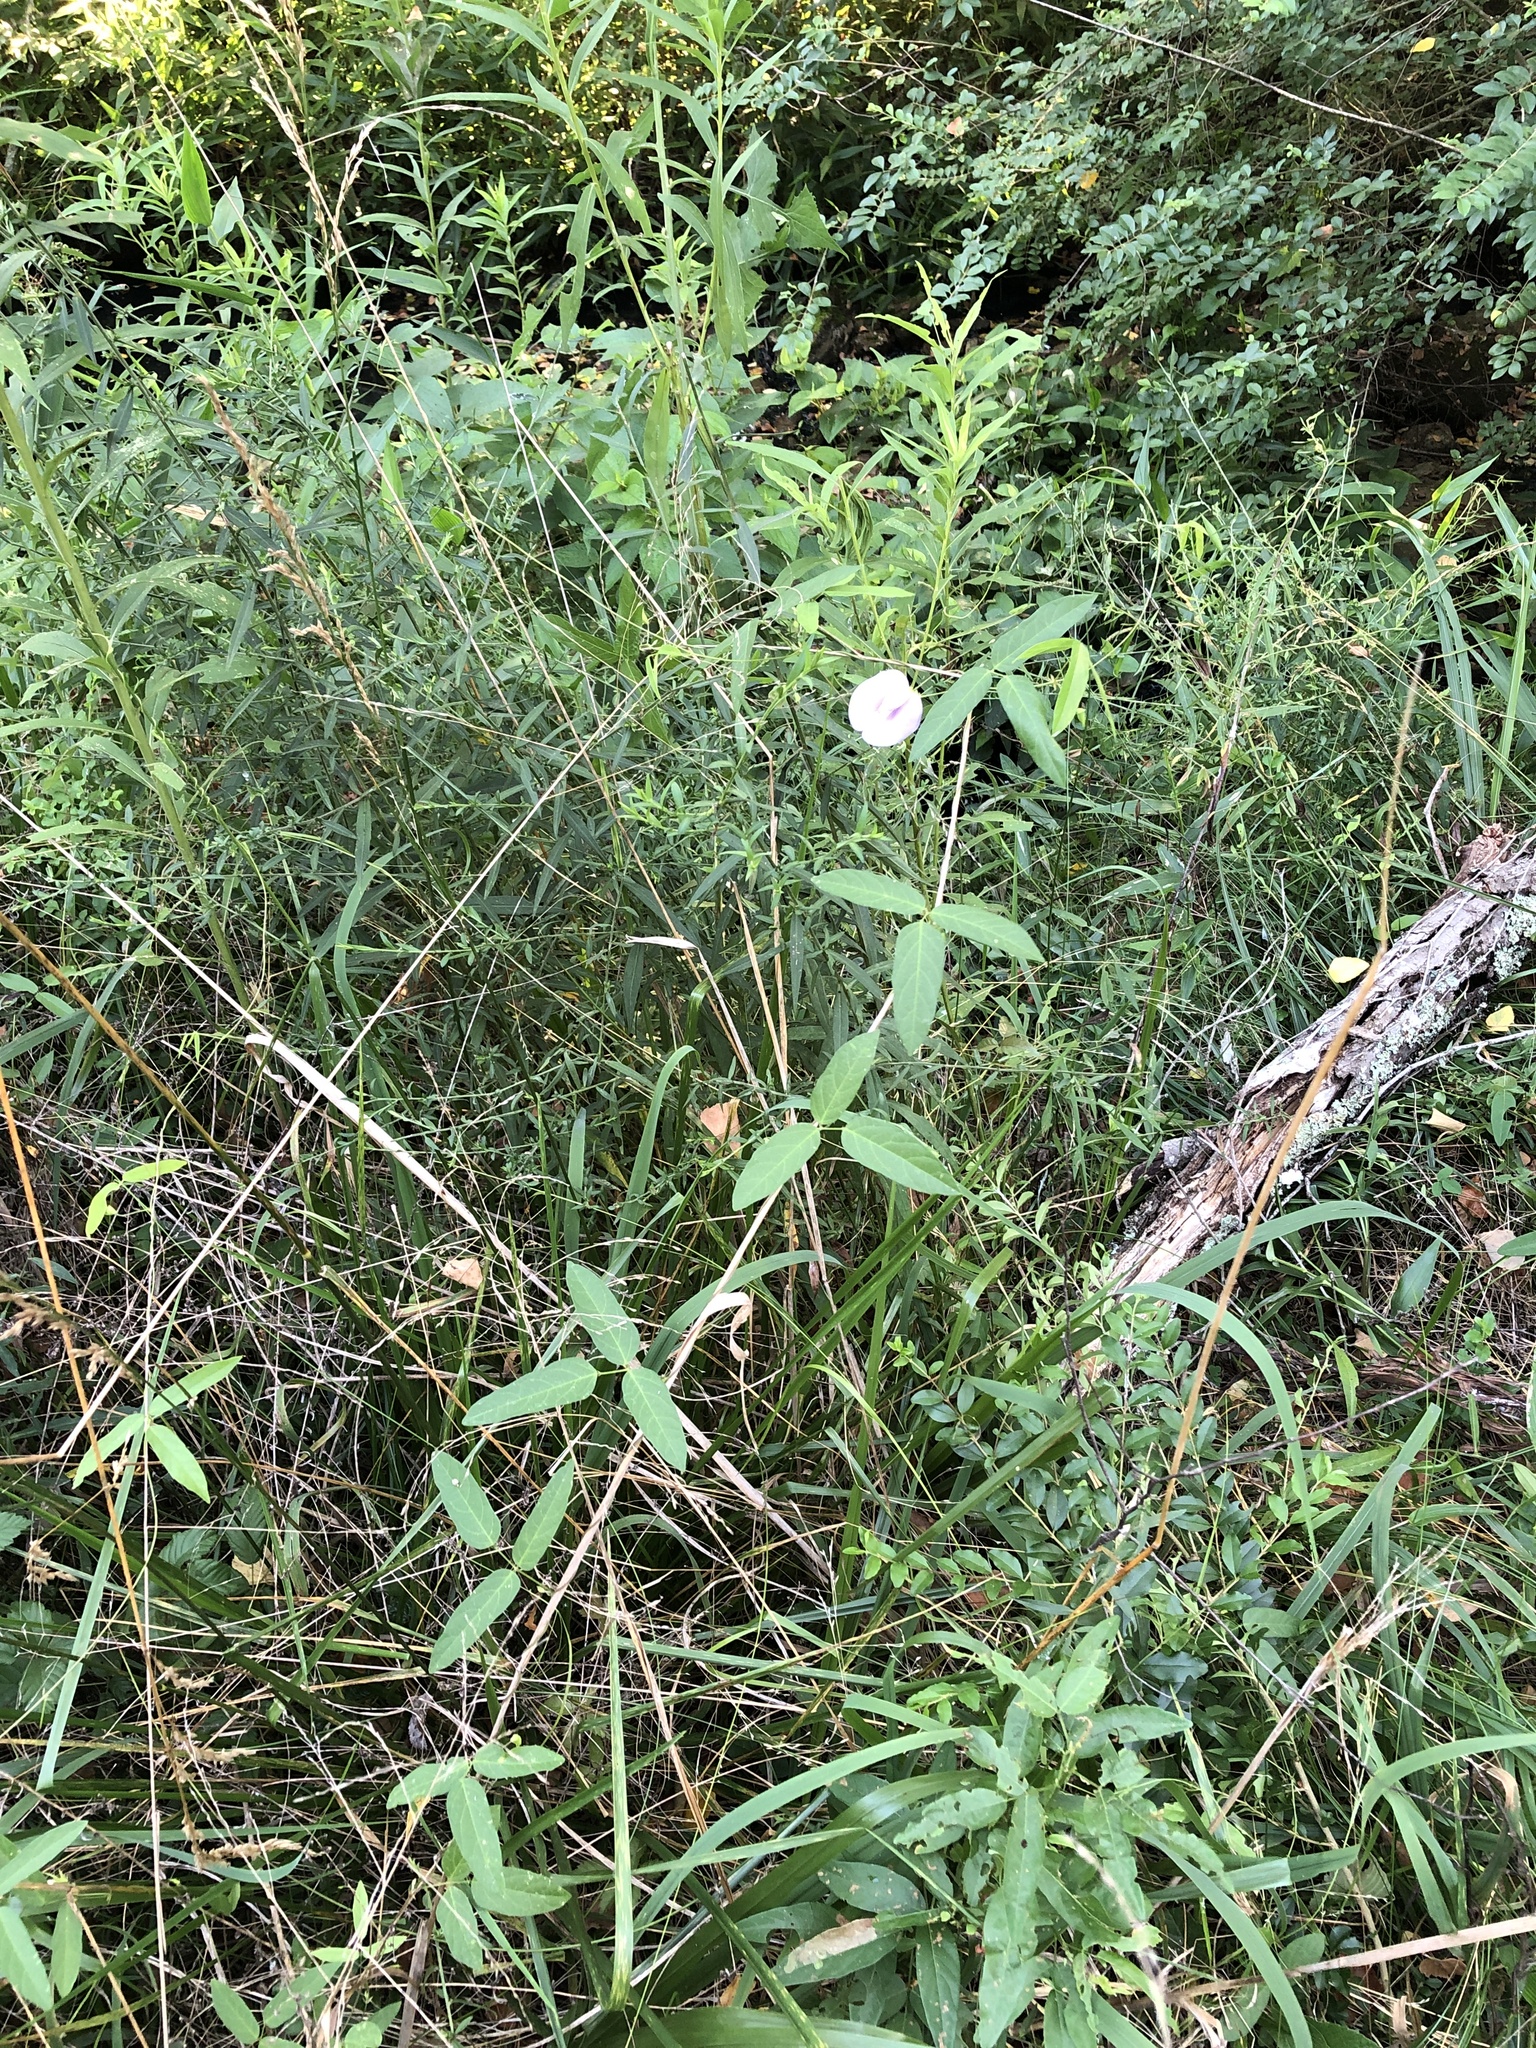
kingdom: Plantae
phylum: Tracheophyta
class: Magnoliopsida
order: Fabales
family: Fabaceae
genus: Centrosema
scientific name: Centrosema virginianum
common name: Butterfly-pea
